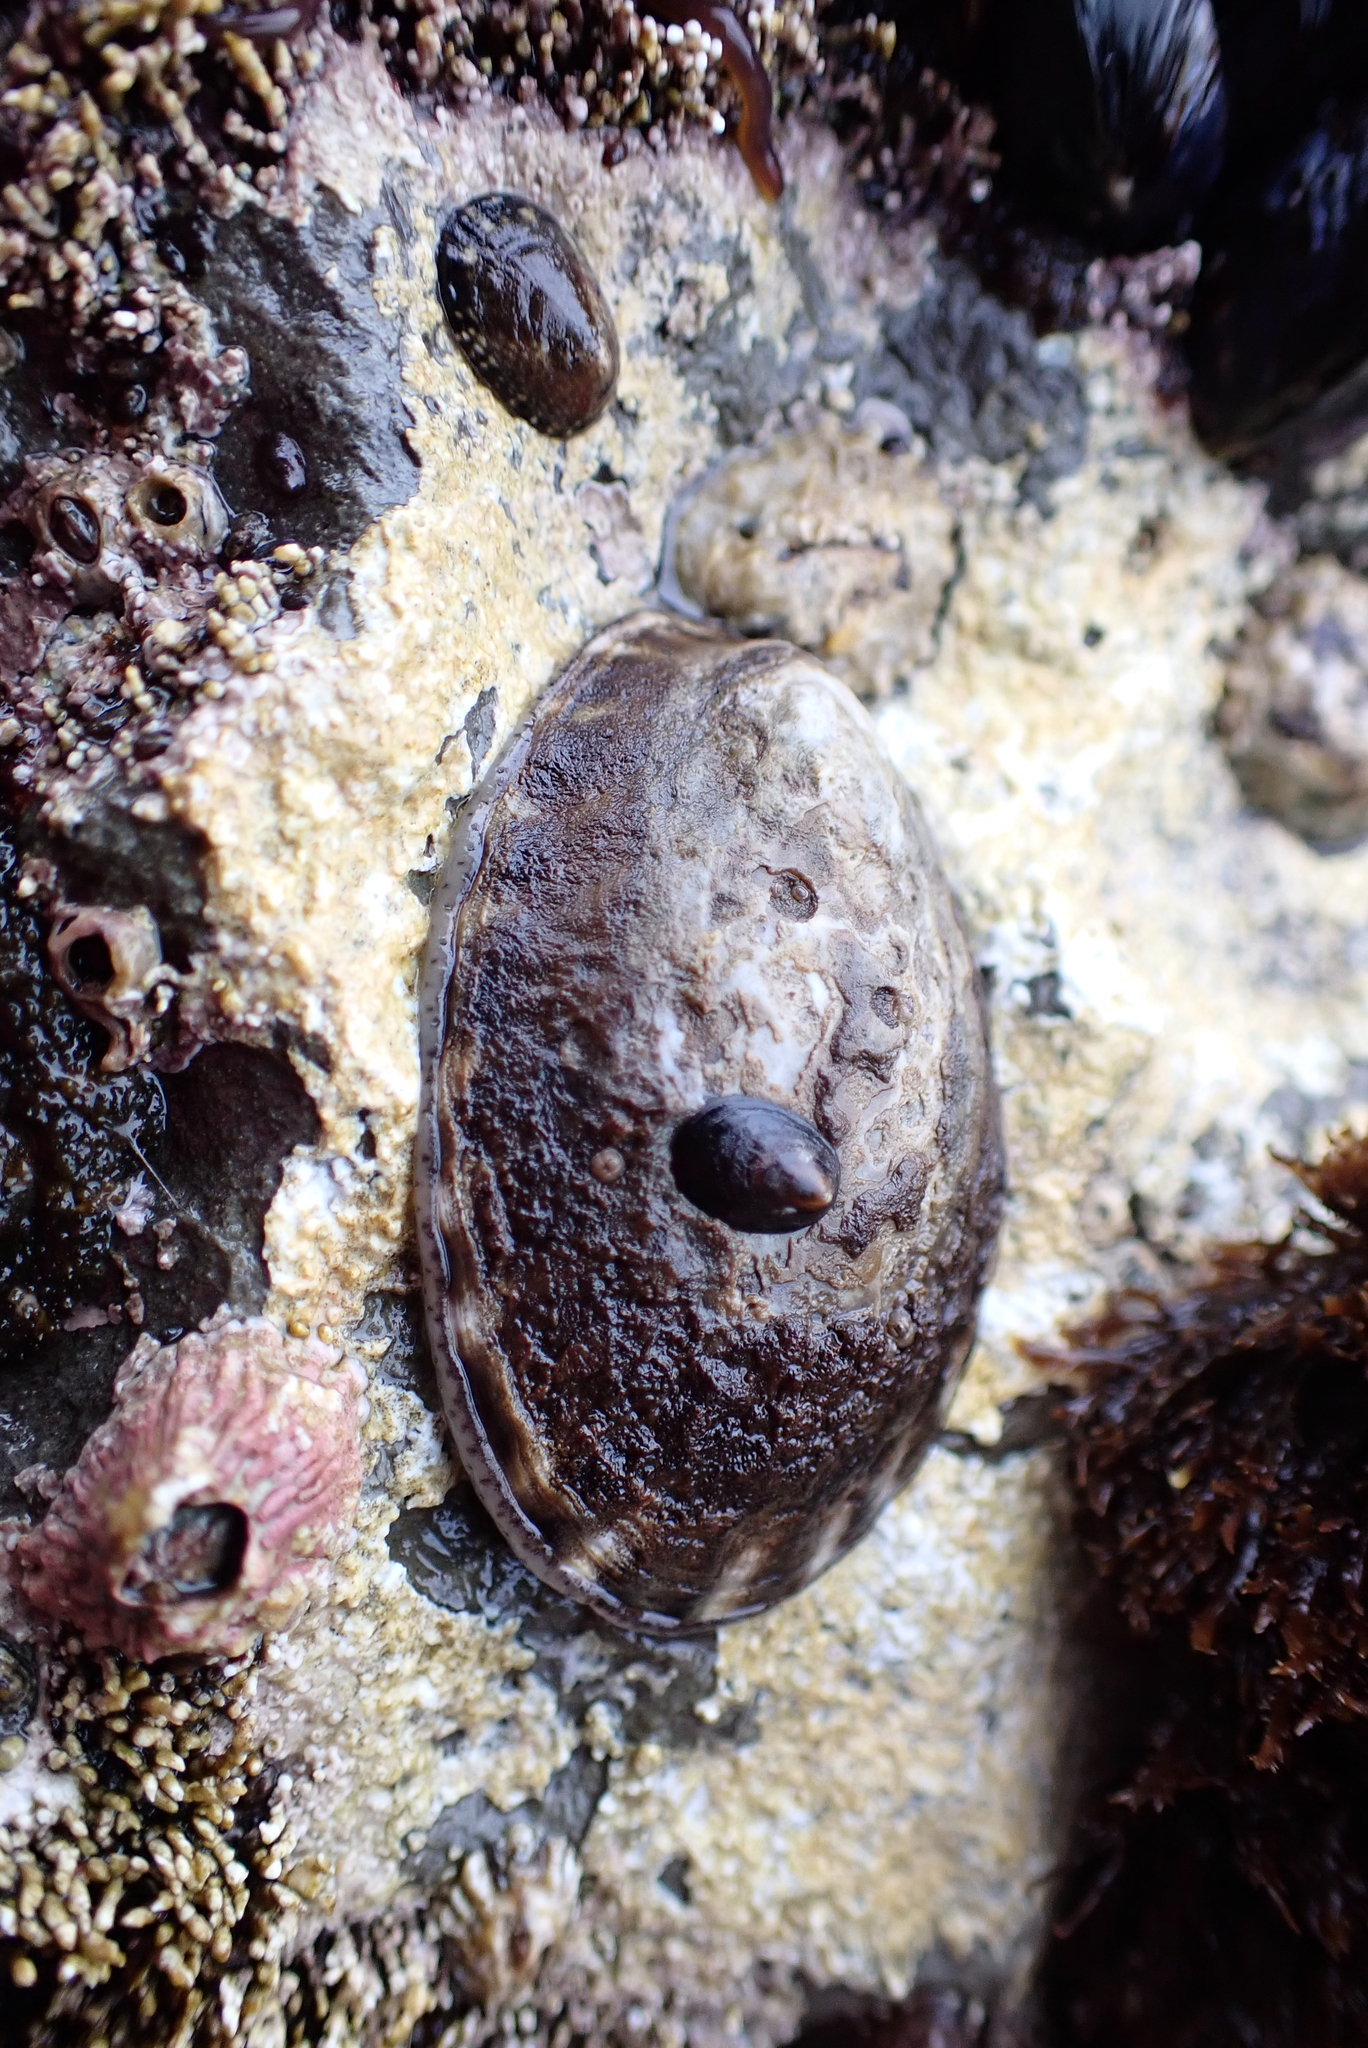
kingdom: Animalia
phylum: Mollusca
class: Gastropoda
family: Lottiidae
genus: Lottia
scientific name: Lottia gigantea
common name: Owl limpet
